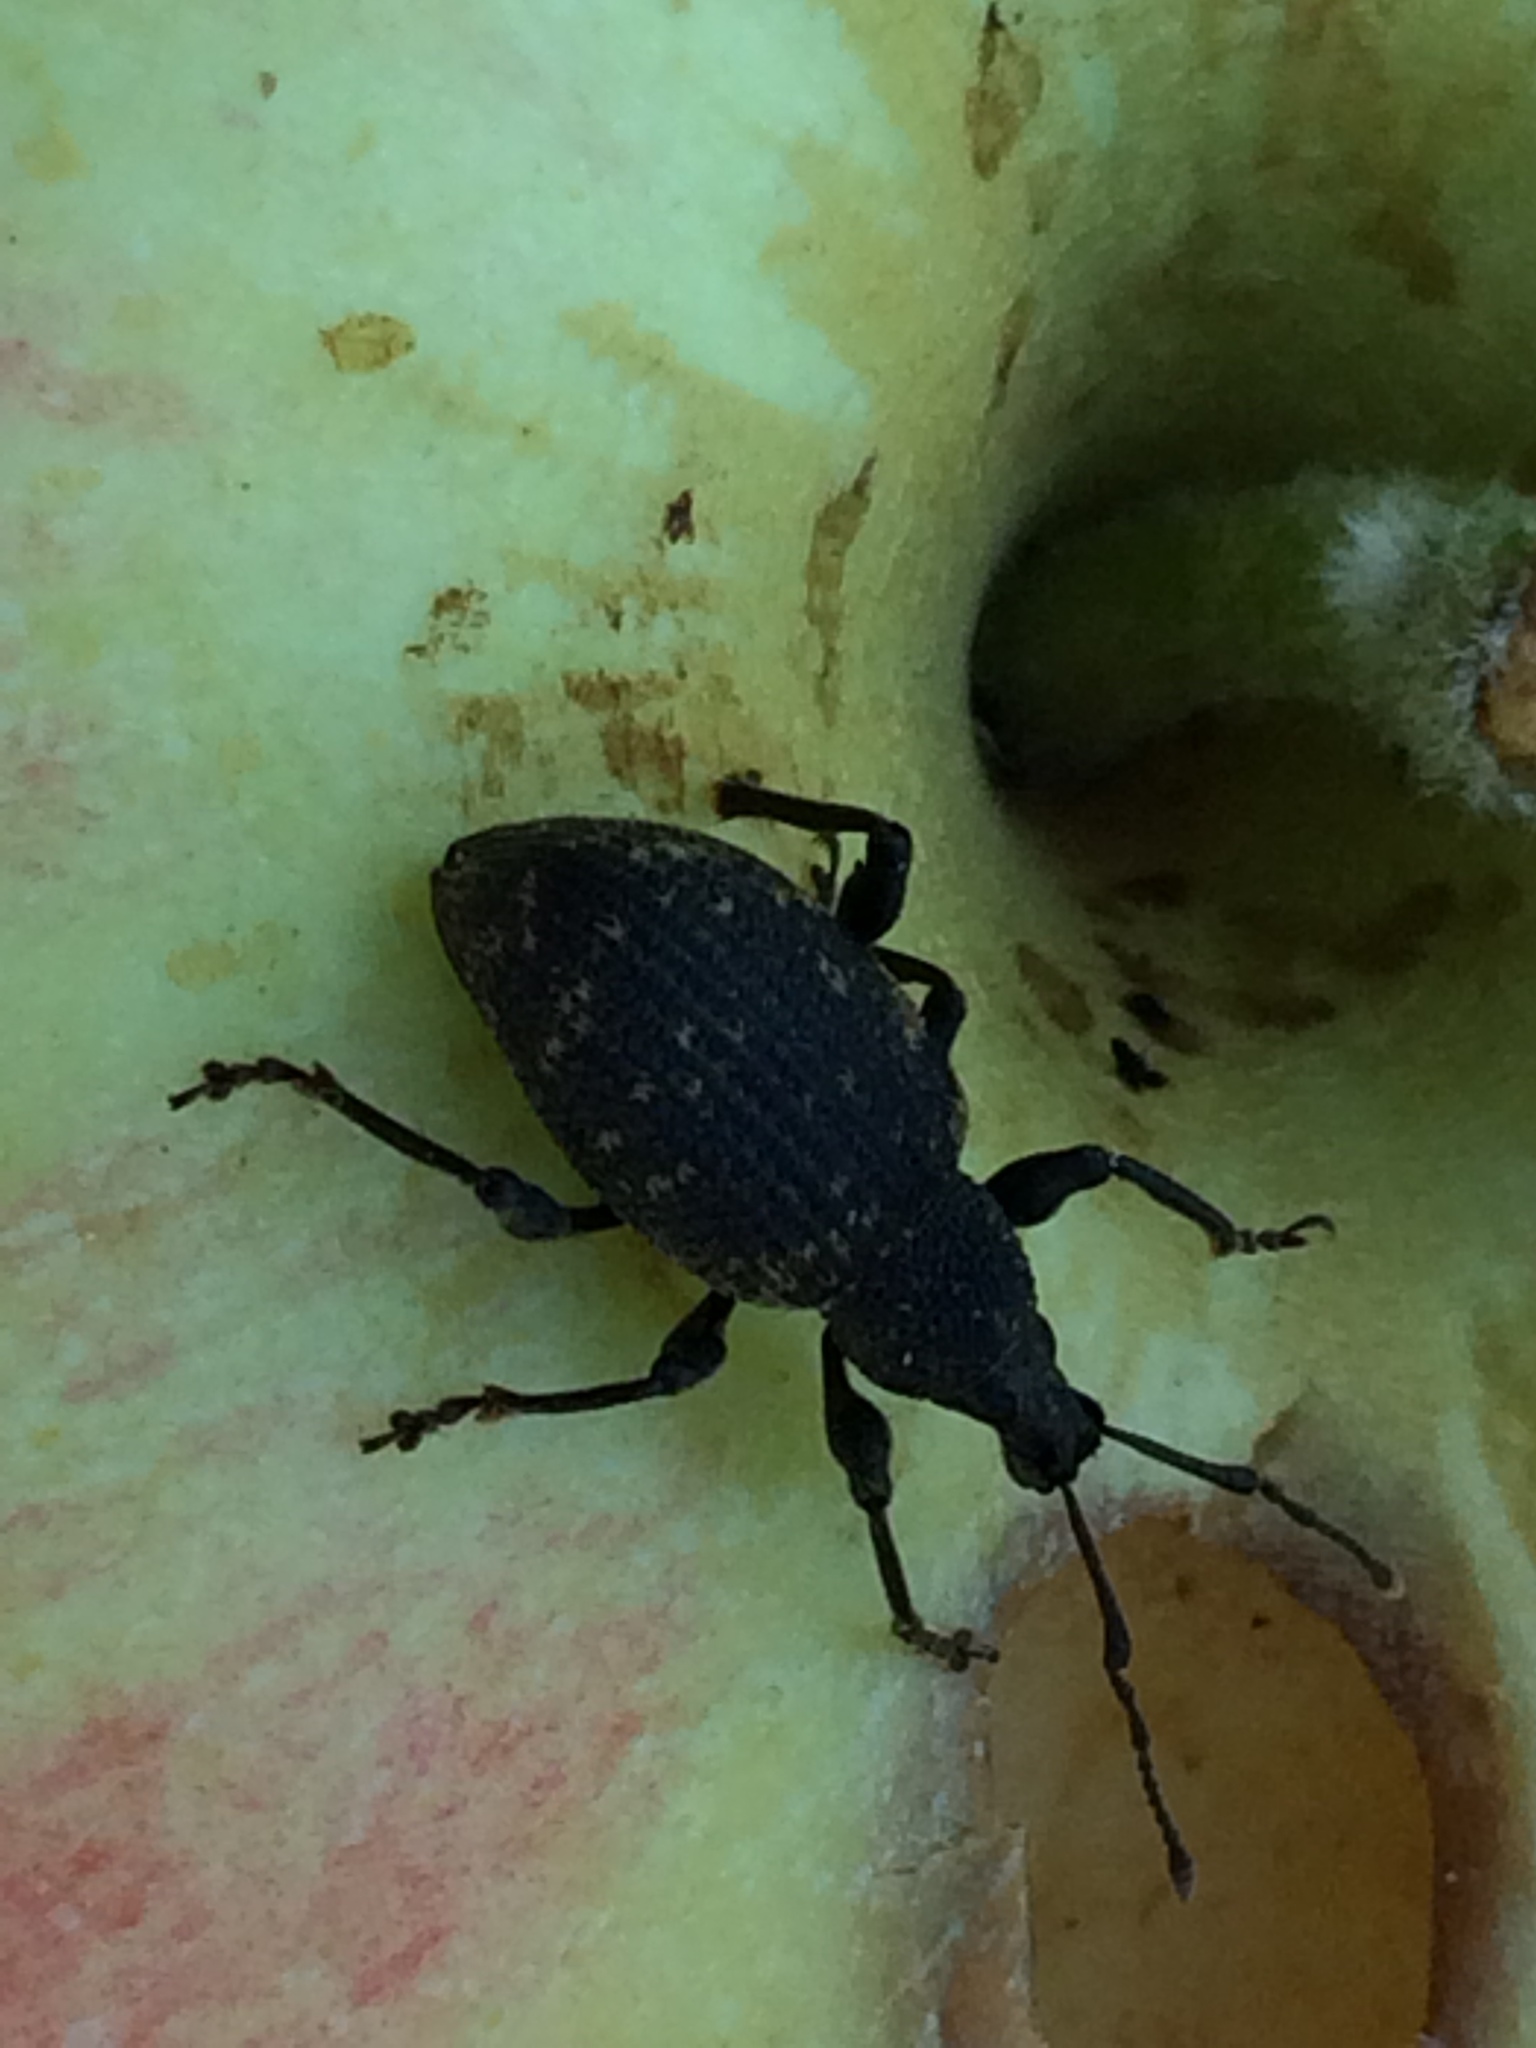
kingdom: Animalia
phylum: Arthropoda
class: Insecta
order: Coleoptera
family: Curculionidae
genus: Otiorhynchus
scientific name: Otiorhynchus sulcatus
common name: Black vine weevil
